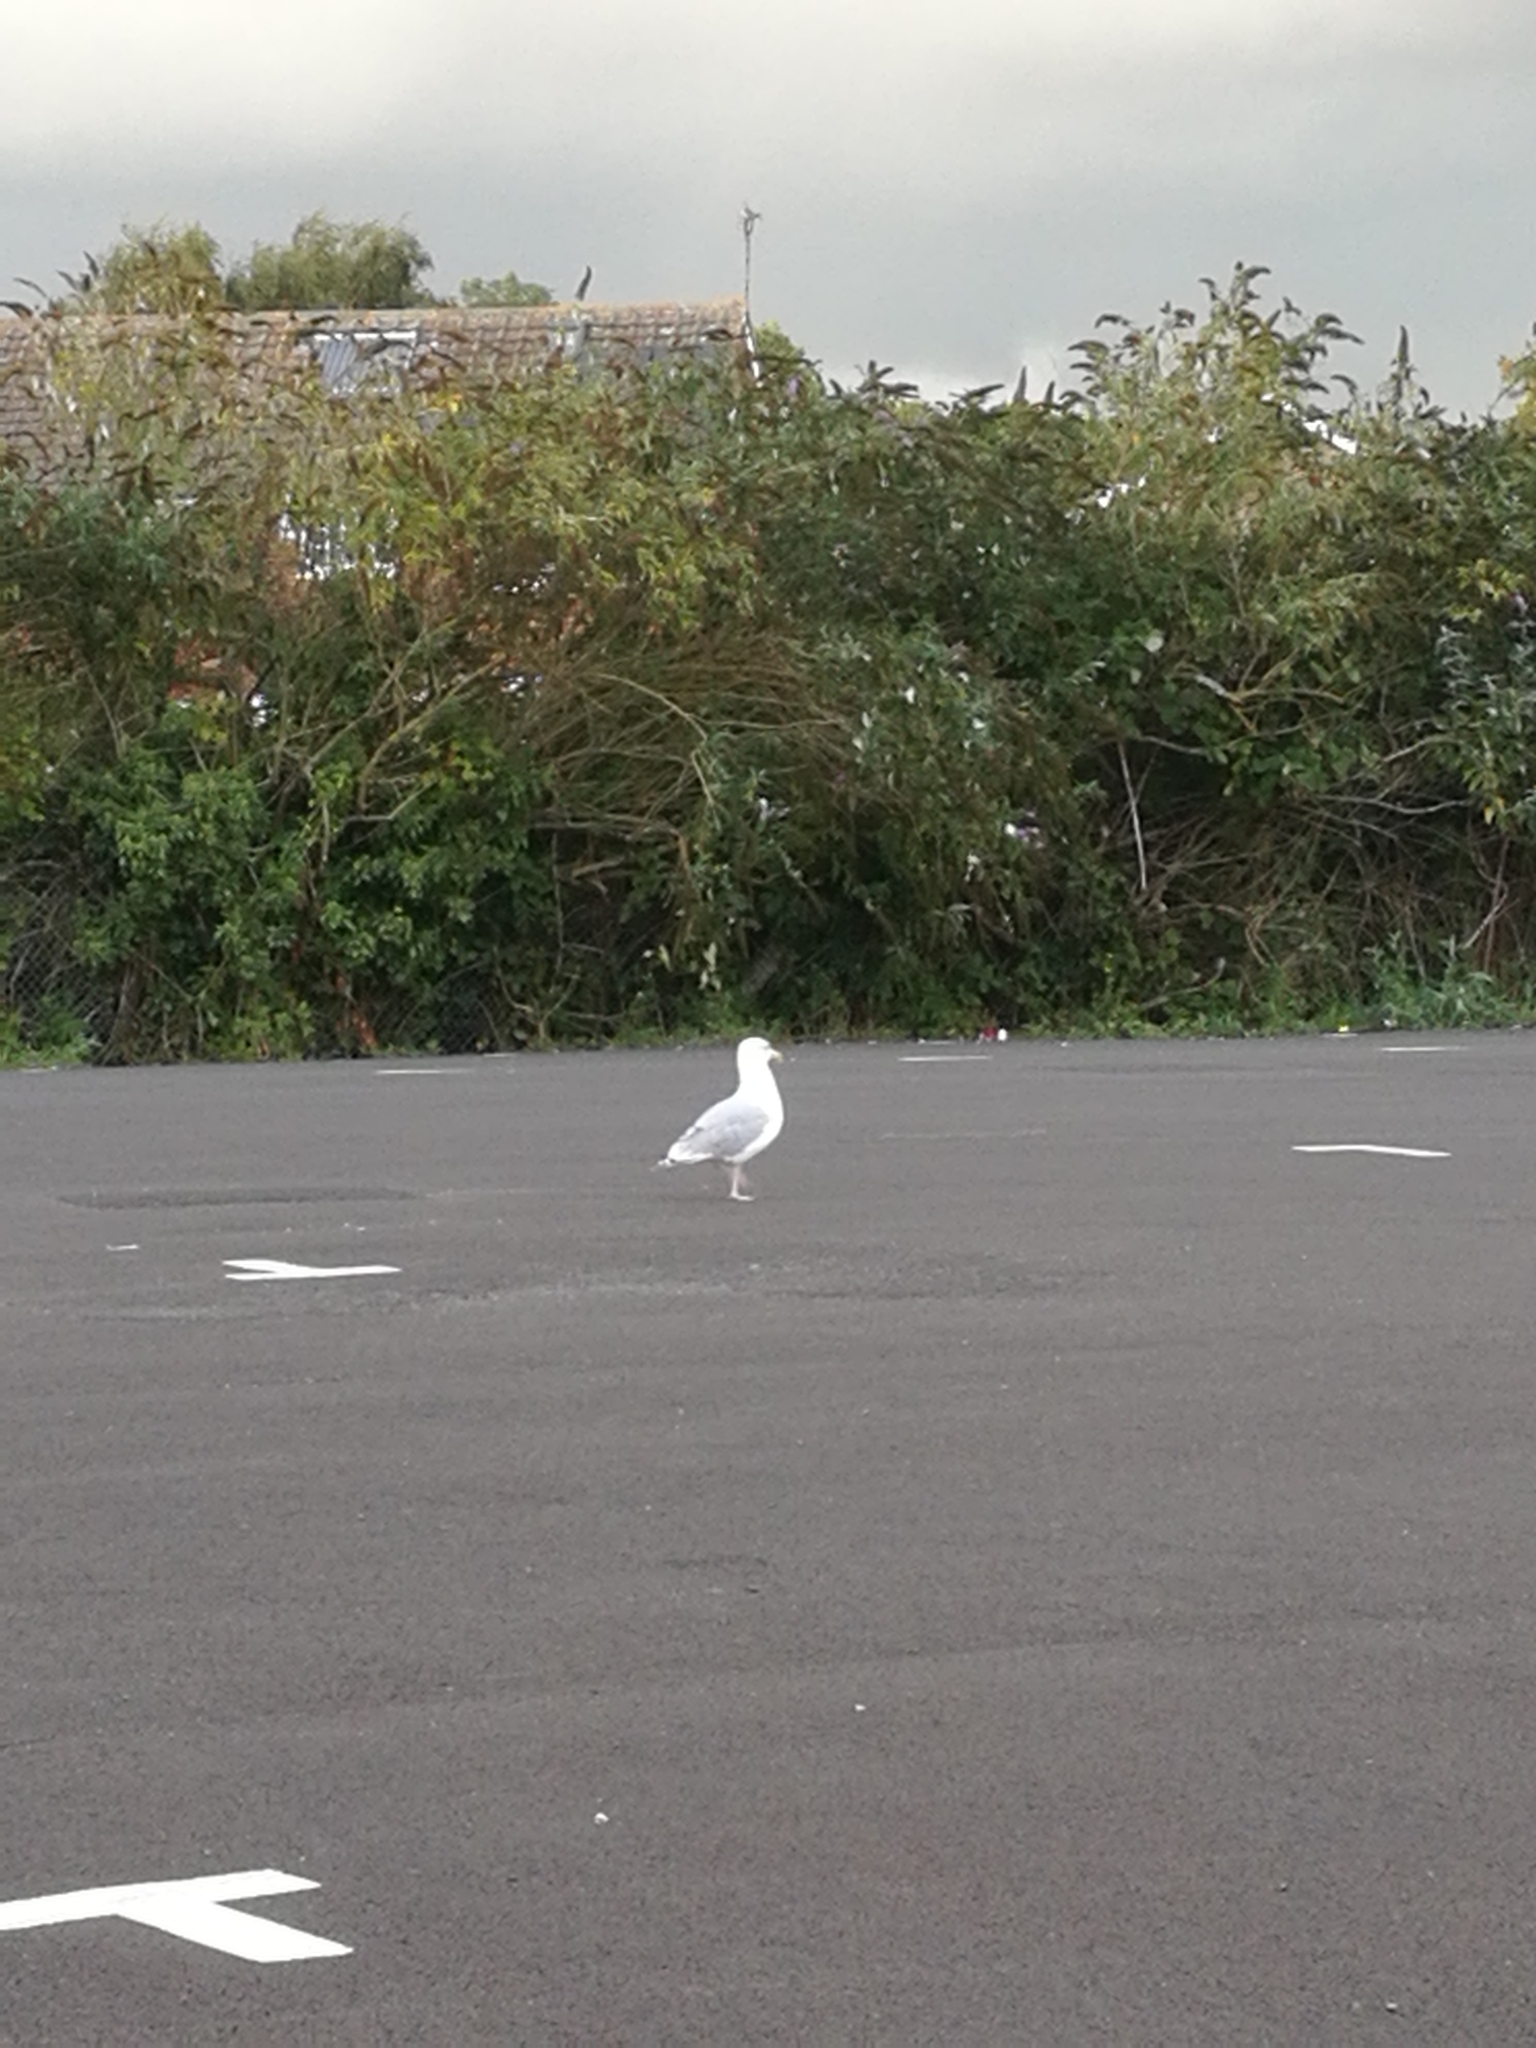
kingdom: Animalia
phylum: Chordata
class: Aves
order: Charadriiformes
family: Laridae
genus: Larus
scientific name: Larus argentatus
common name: Herring gull
